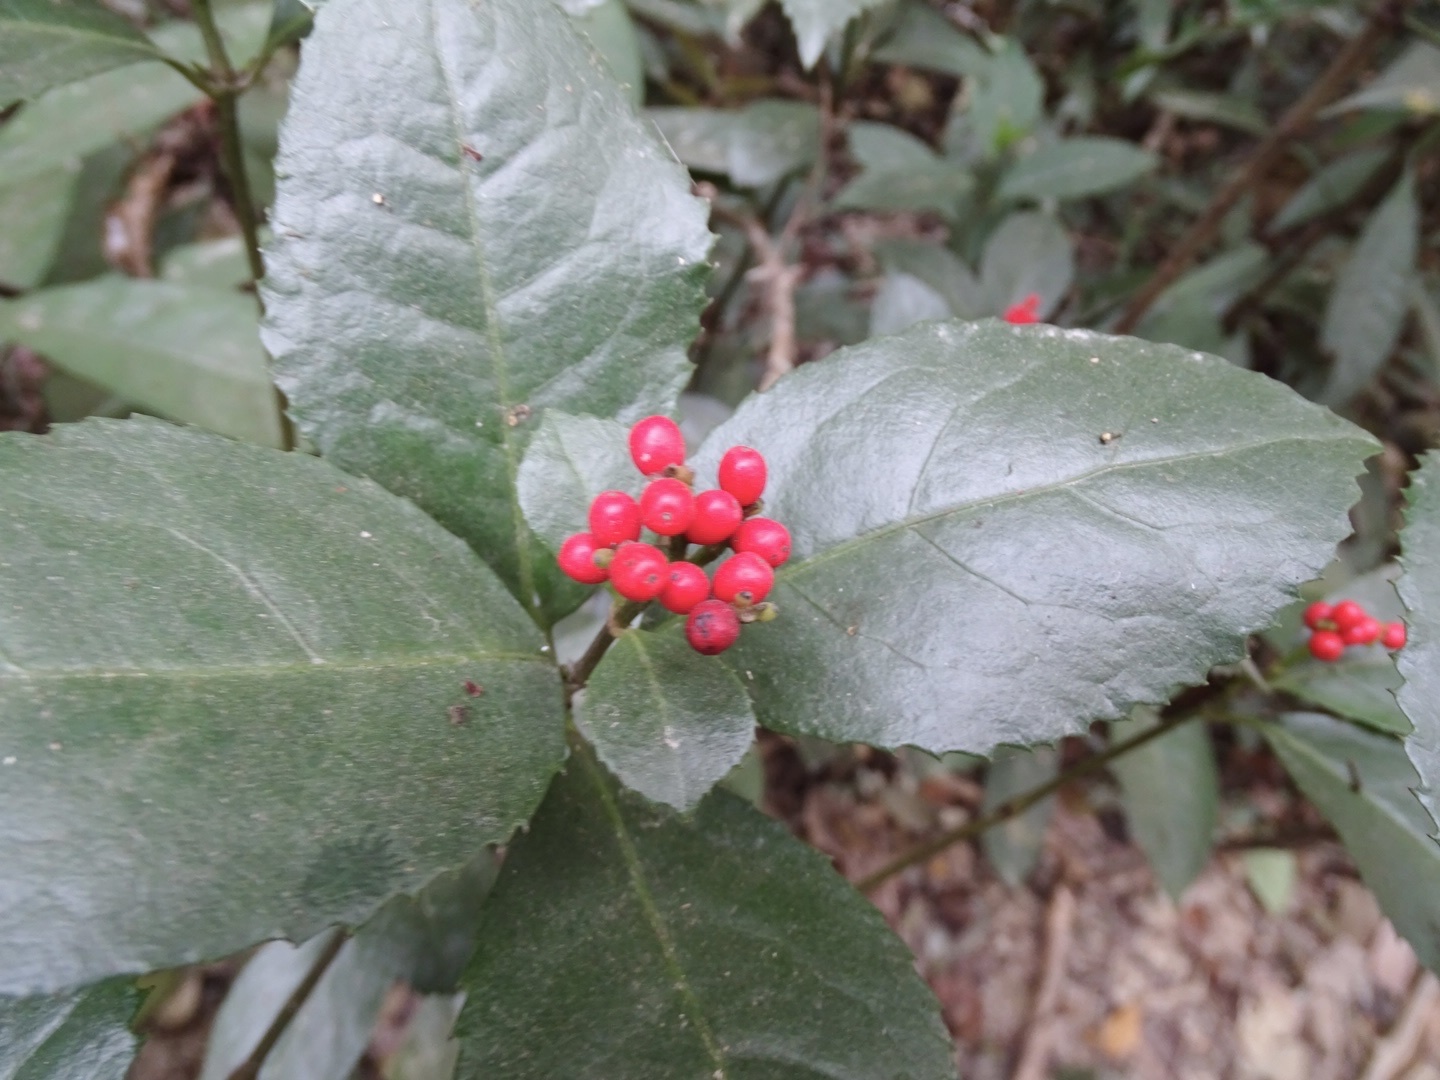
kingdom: Plantae
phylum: Tracheophyta
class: Magnoliopsida
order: Chloranthales
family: Chloranthaceae
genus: Sarcandra
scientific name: Sarcandra glabra
